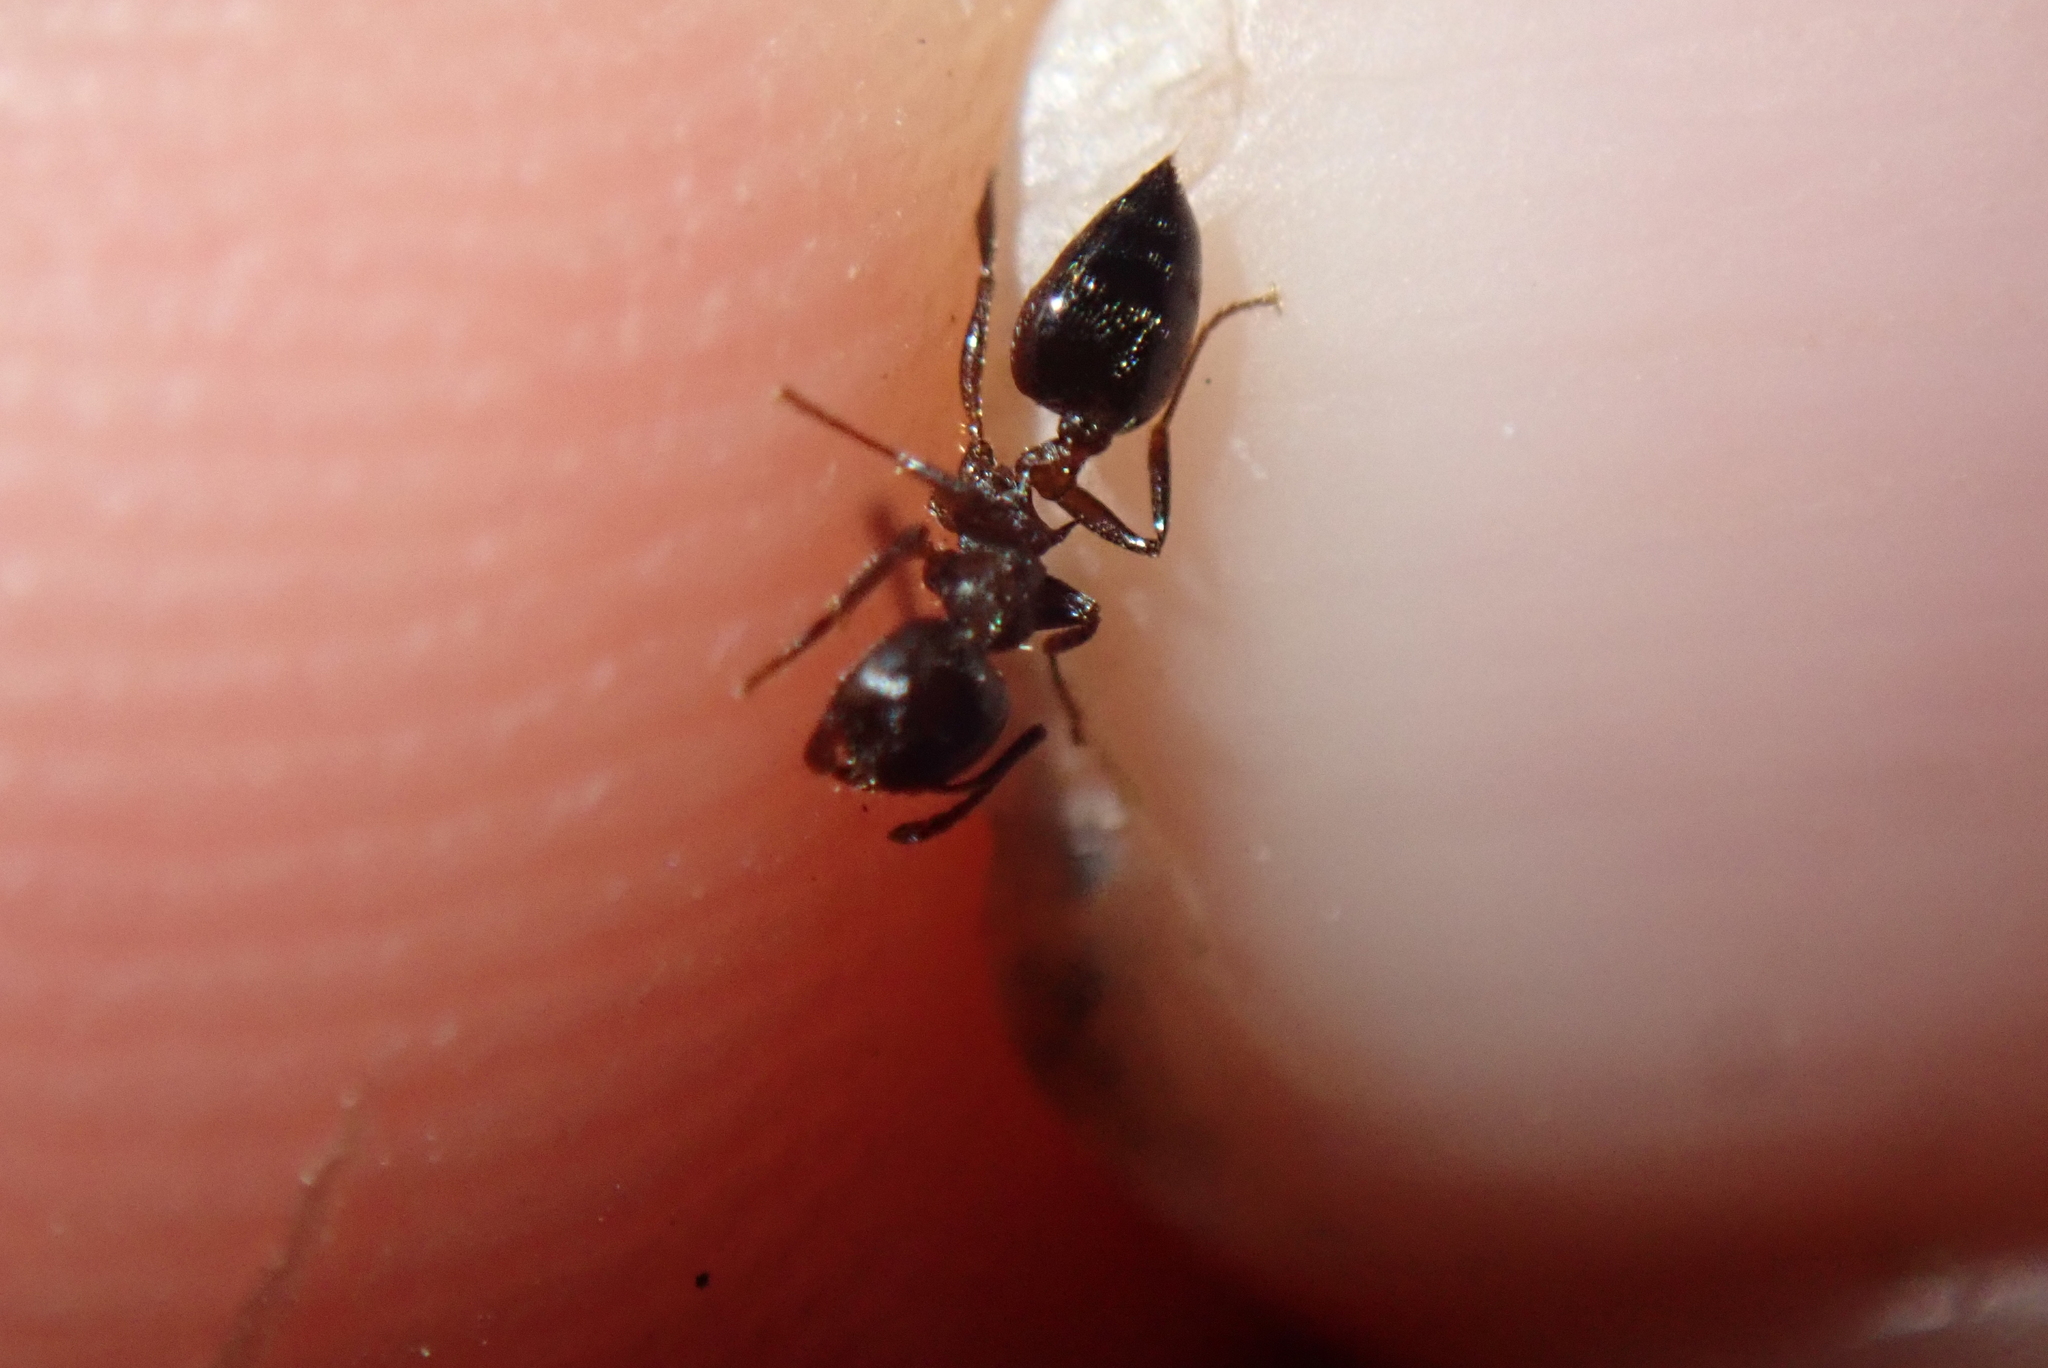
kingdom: Animalia
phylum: Arthropoda
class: Insecta
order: Hymenoptera
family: Formicidae
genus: Crematogaster
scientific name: Crematogaster cerasi
